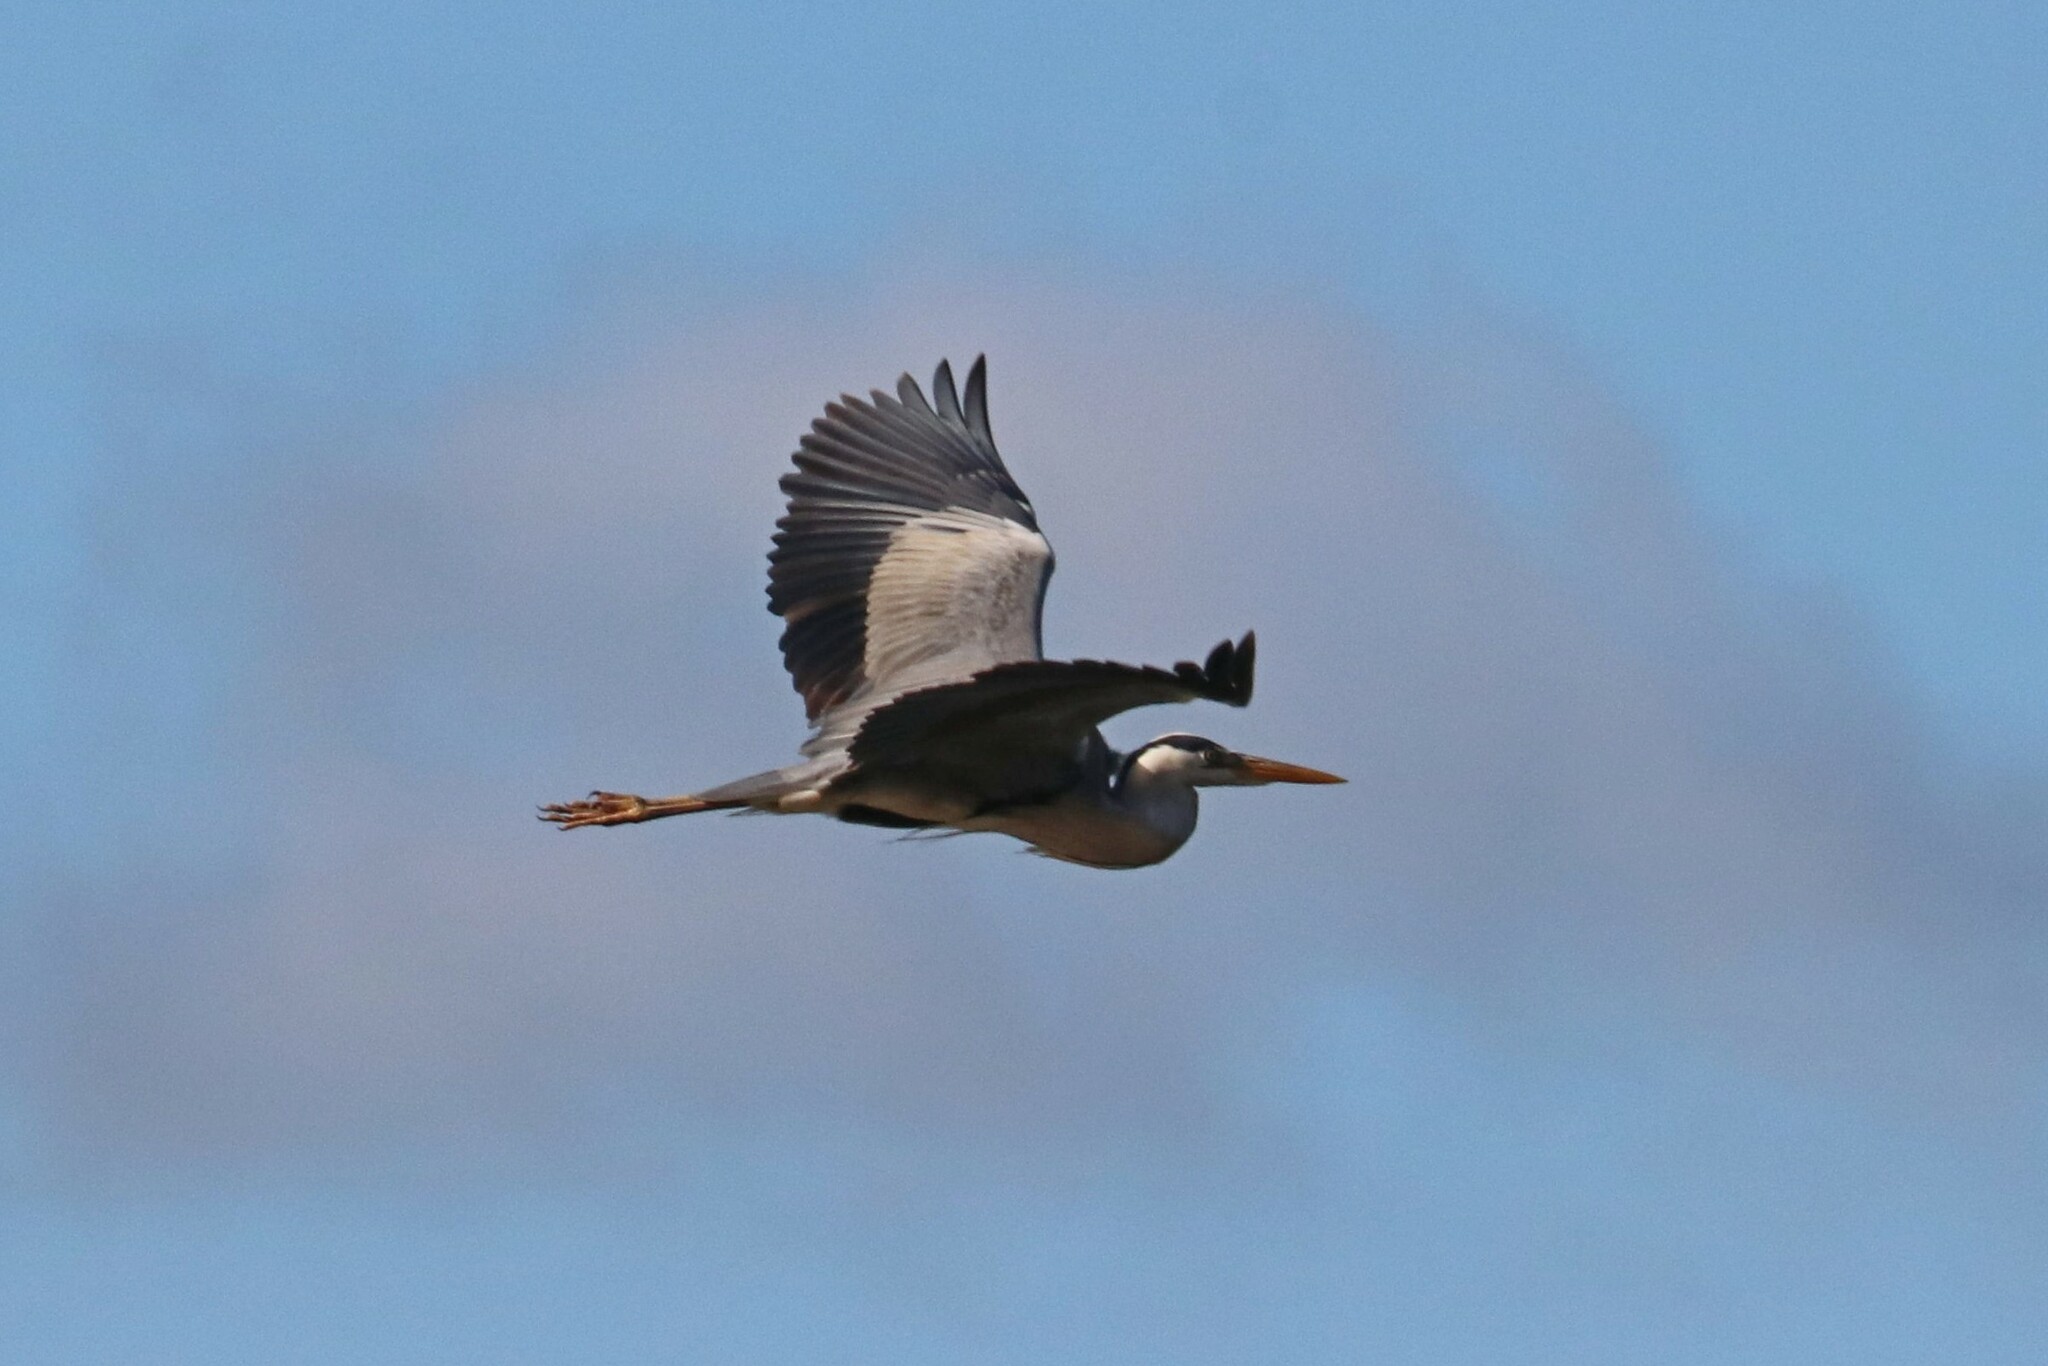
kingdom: Animalia
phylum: Chordata
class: Aves
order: Pelecaniformes
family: Ardeidae
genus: Ardea
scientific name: Ardea cinerea
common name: Grey heron
